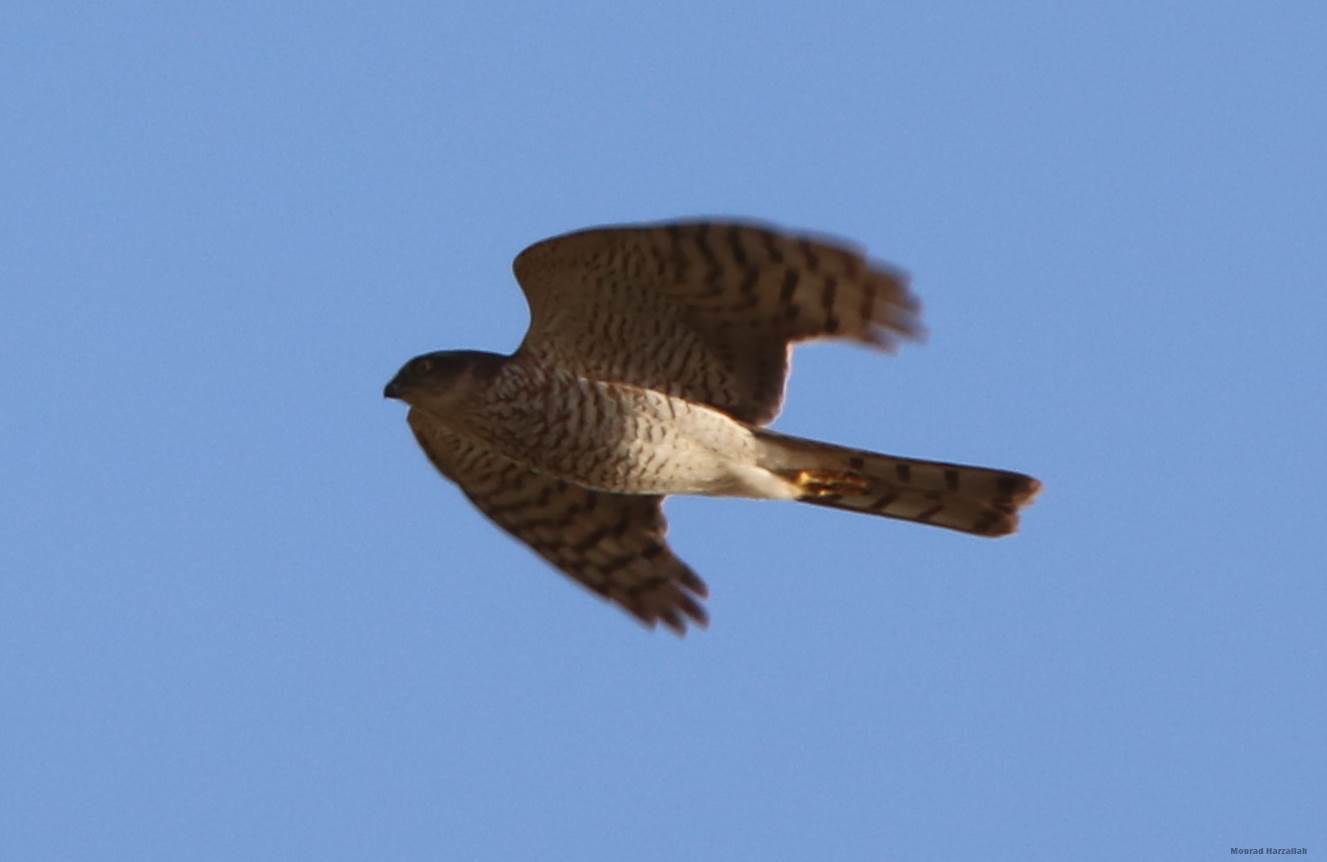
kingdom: Animalia
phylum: Chordata
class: Aves
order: Accipitriformes
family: Accipitridae
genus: Accipiter
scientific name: Accipiter nisus
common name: Eurasian sparrowhawk
